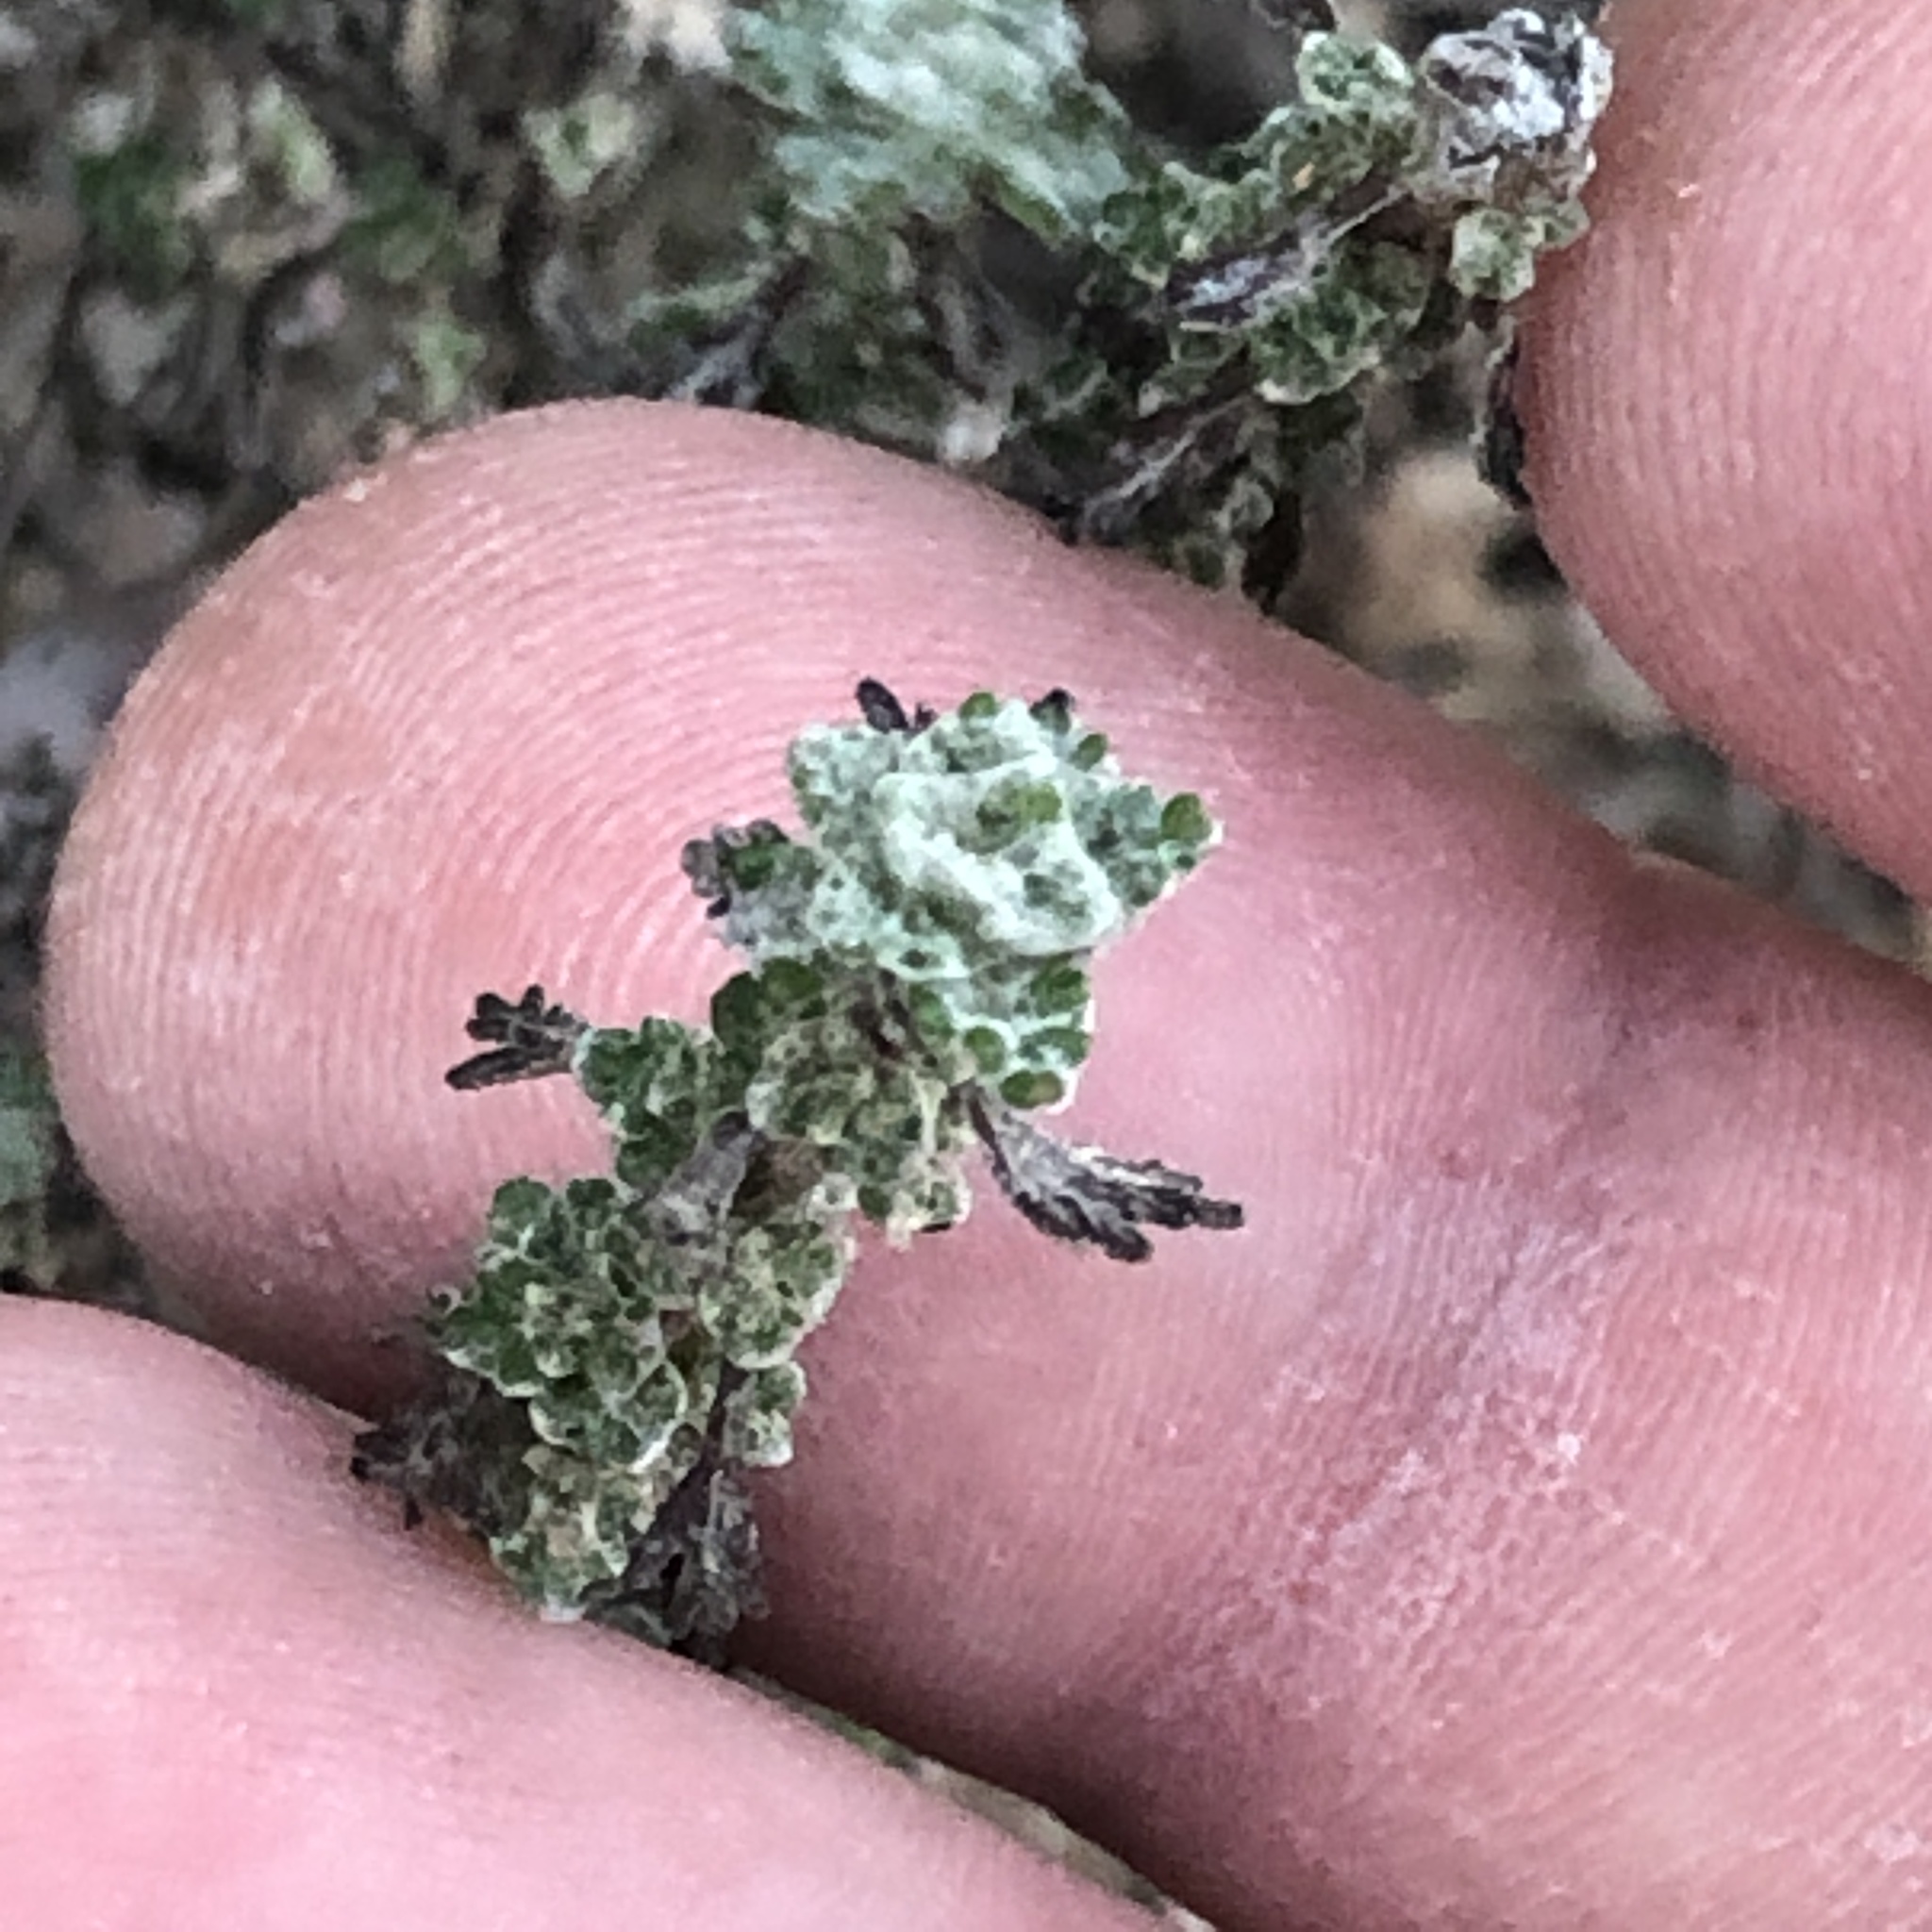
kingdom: Plantae
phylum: Tracheophyta
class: Magnoliopsida
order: Asterales
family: Asteraceae
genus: Eriophyllum
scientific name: Eriophyllum confertiflorum
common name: Golden-yarrow
